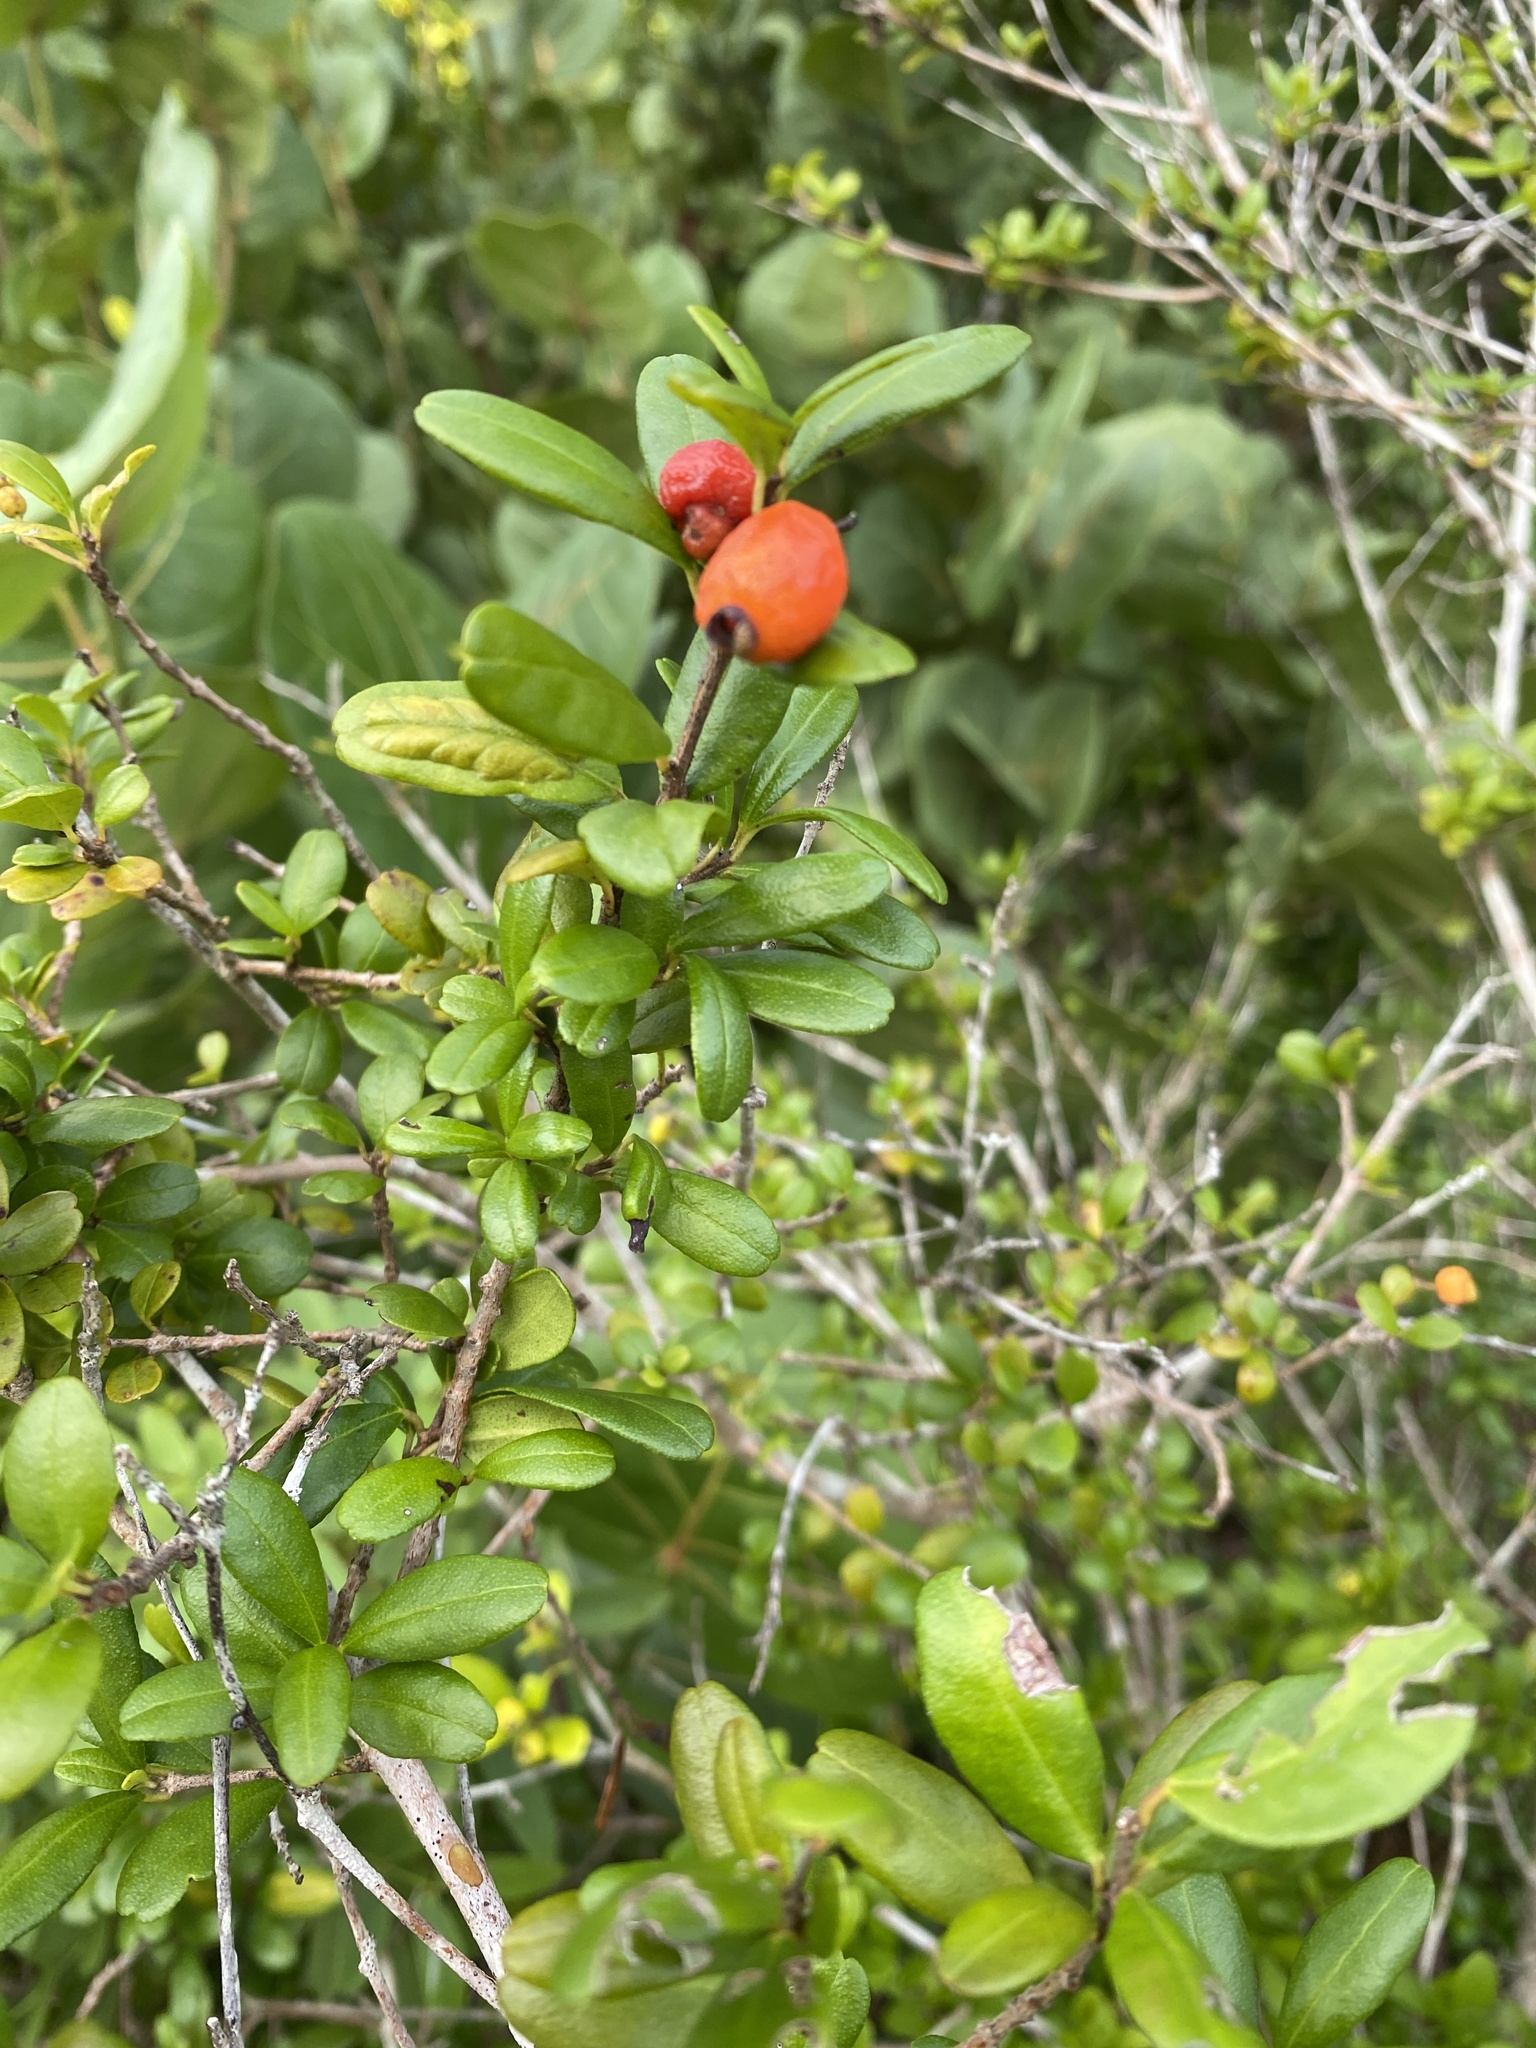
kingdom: Plantae
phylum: Tracheophyta
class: Magnoliopsida
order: Myrtales
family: Myrtaceae
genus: Myrcianthes
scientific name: Myrcianthes fragrans
